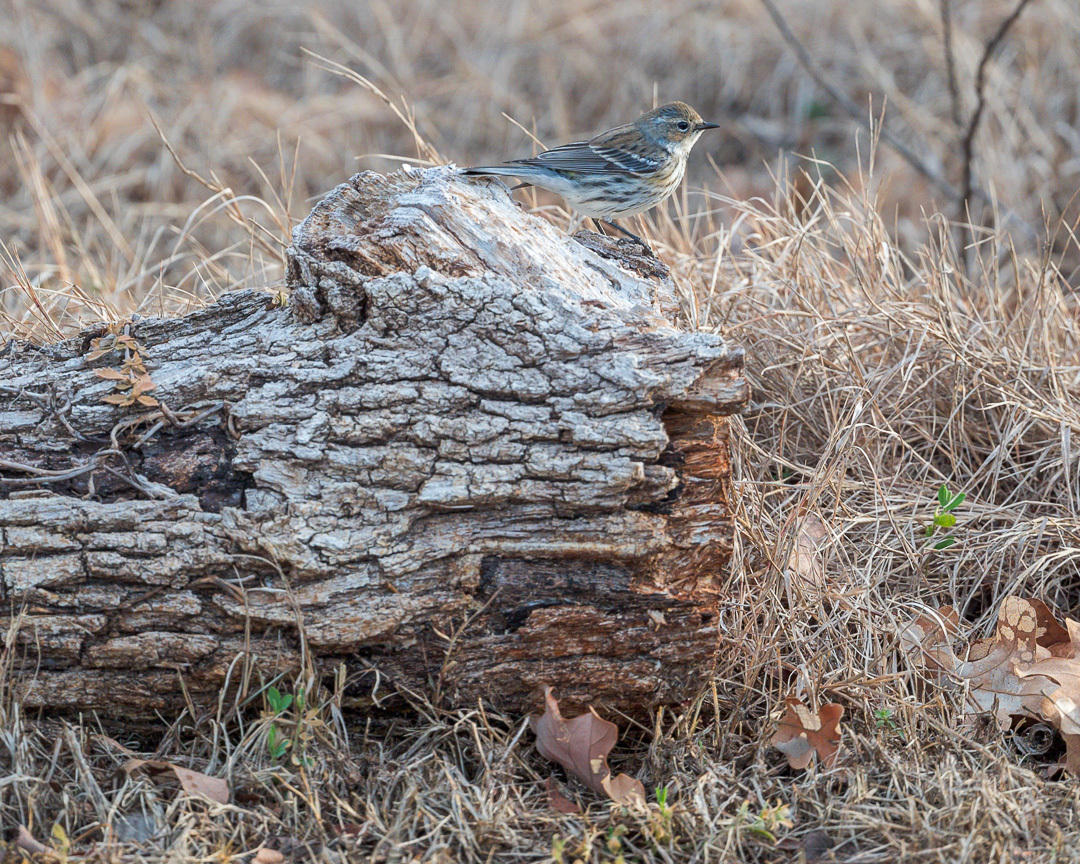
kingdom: Animalia
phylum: Chordata
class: Aves
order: Passeriformes
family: Parulidae
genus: Setophaga
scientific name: Setophaga coronata
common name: Myrtle warbler
